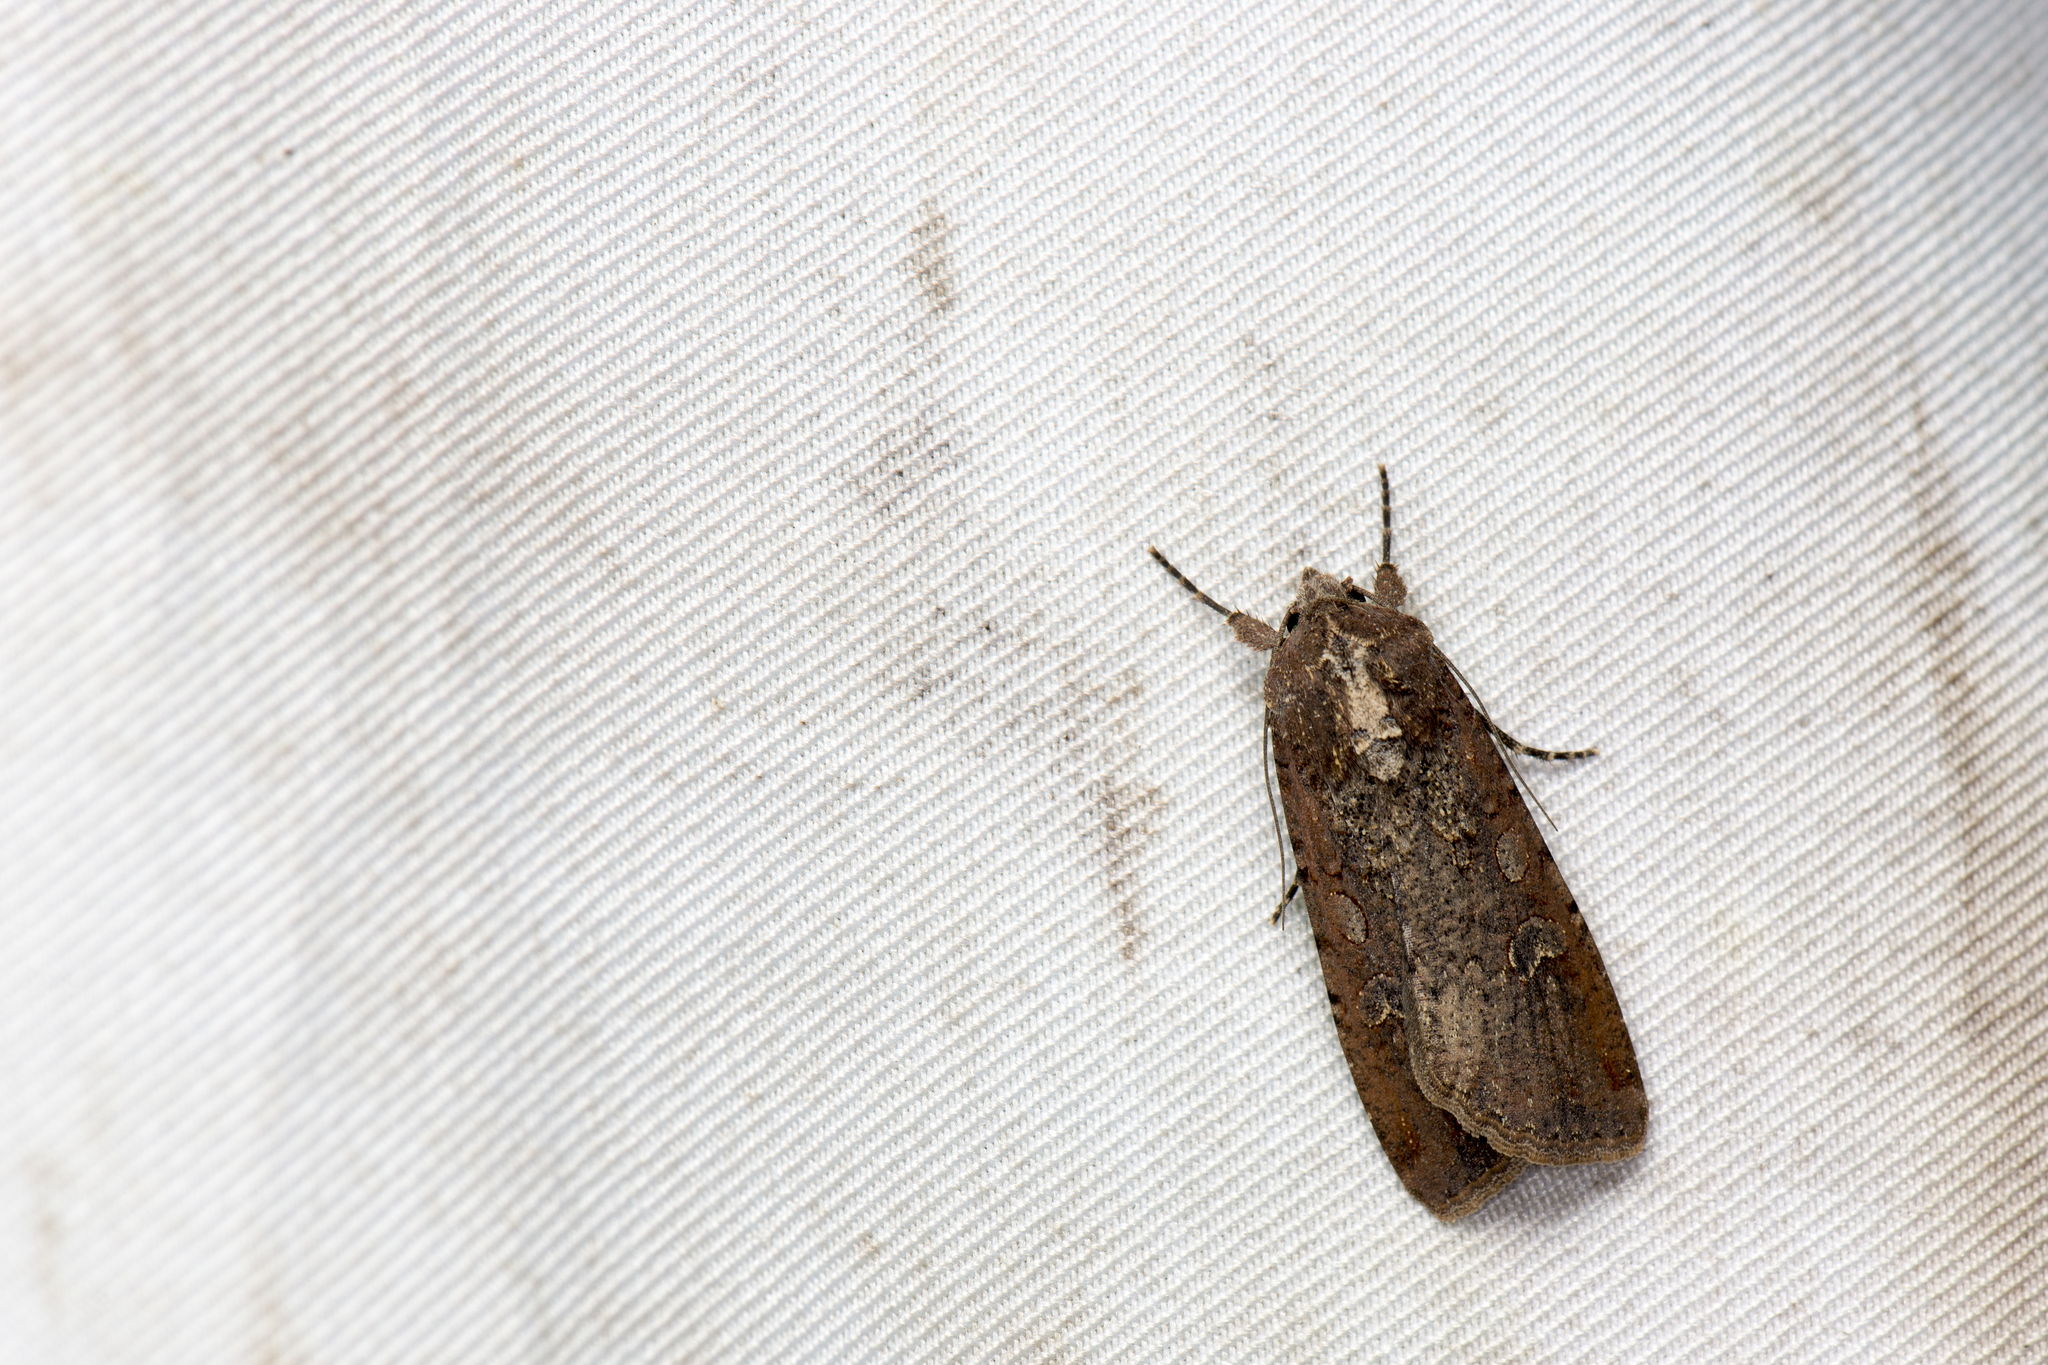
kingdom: Animalia
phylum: Arthropoda
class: Insecta
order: Lepidoptera
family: Noctuidae
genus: Peridroma
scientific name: Peridroma saucia
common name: Pearly underwing
